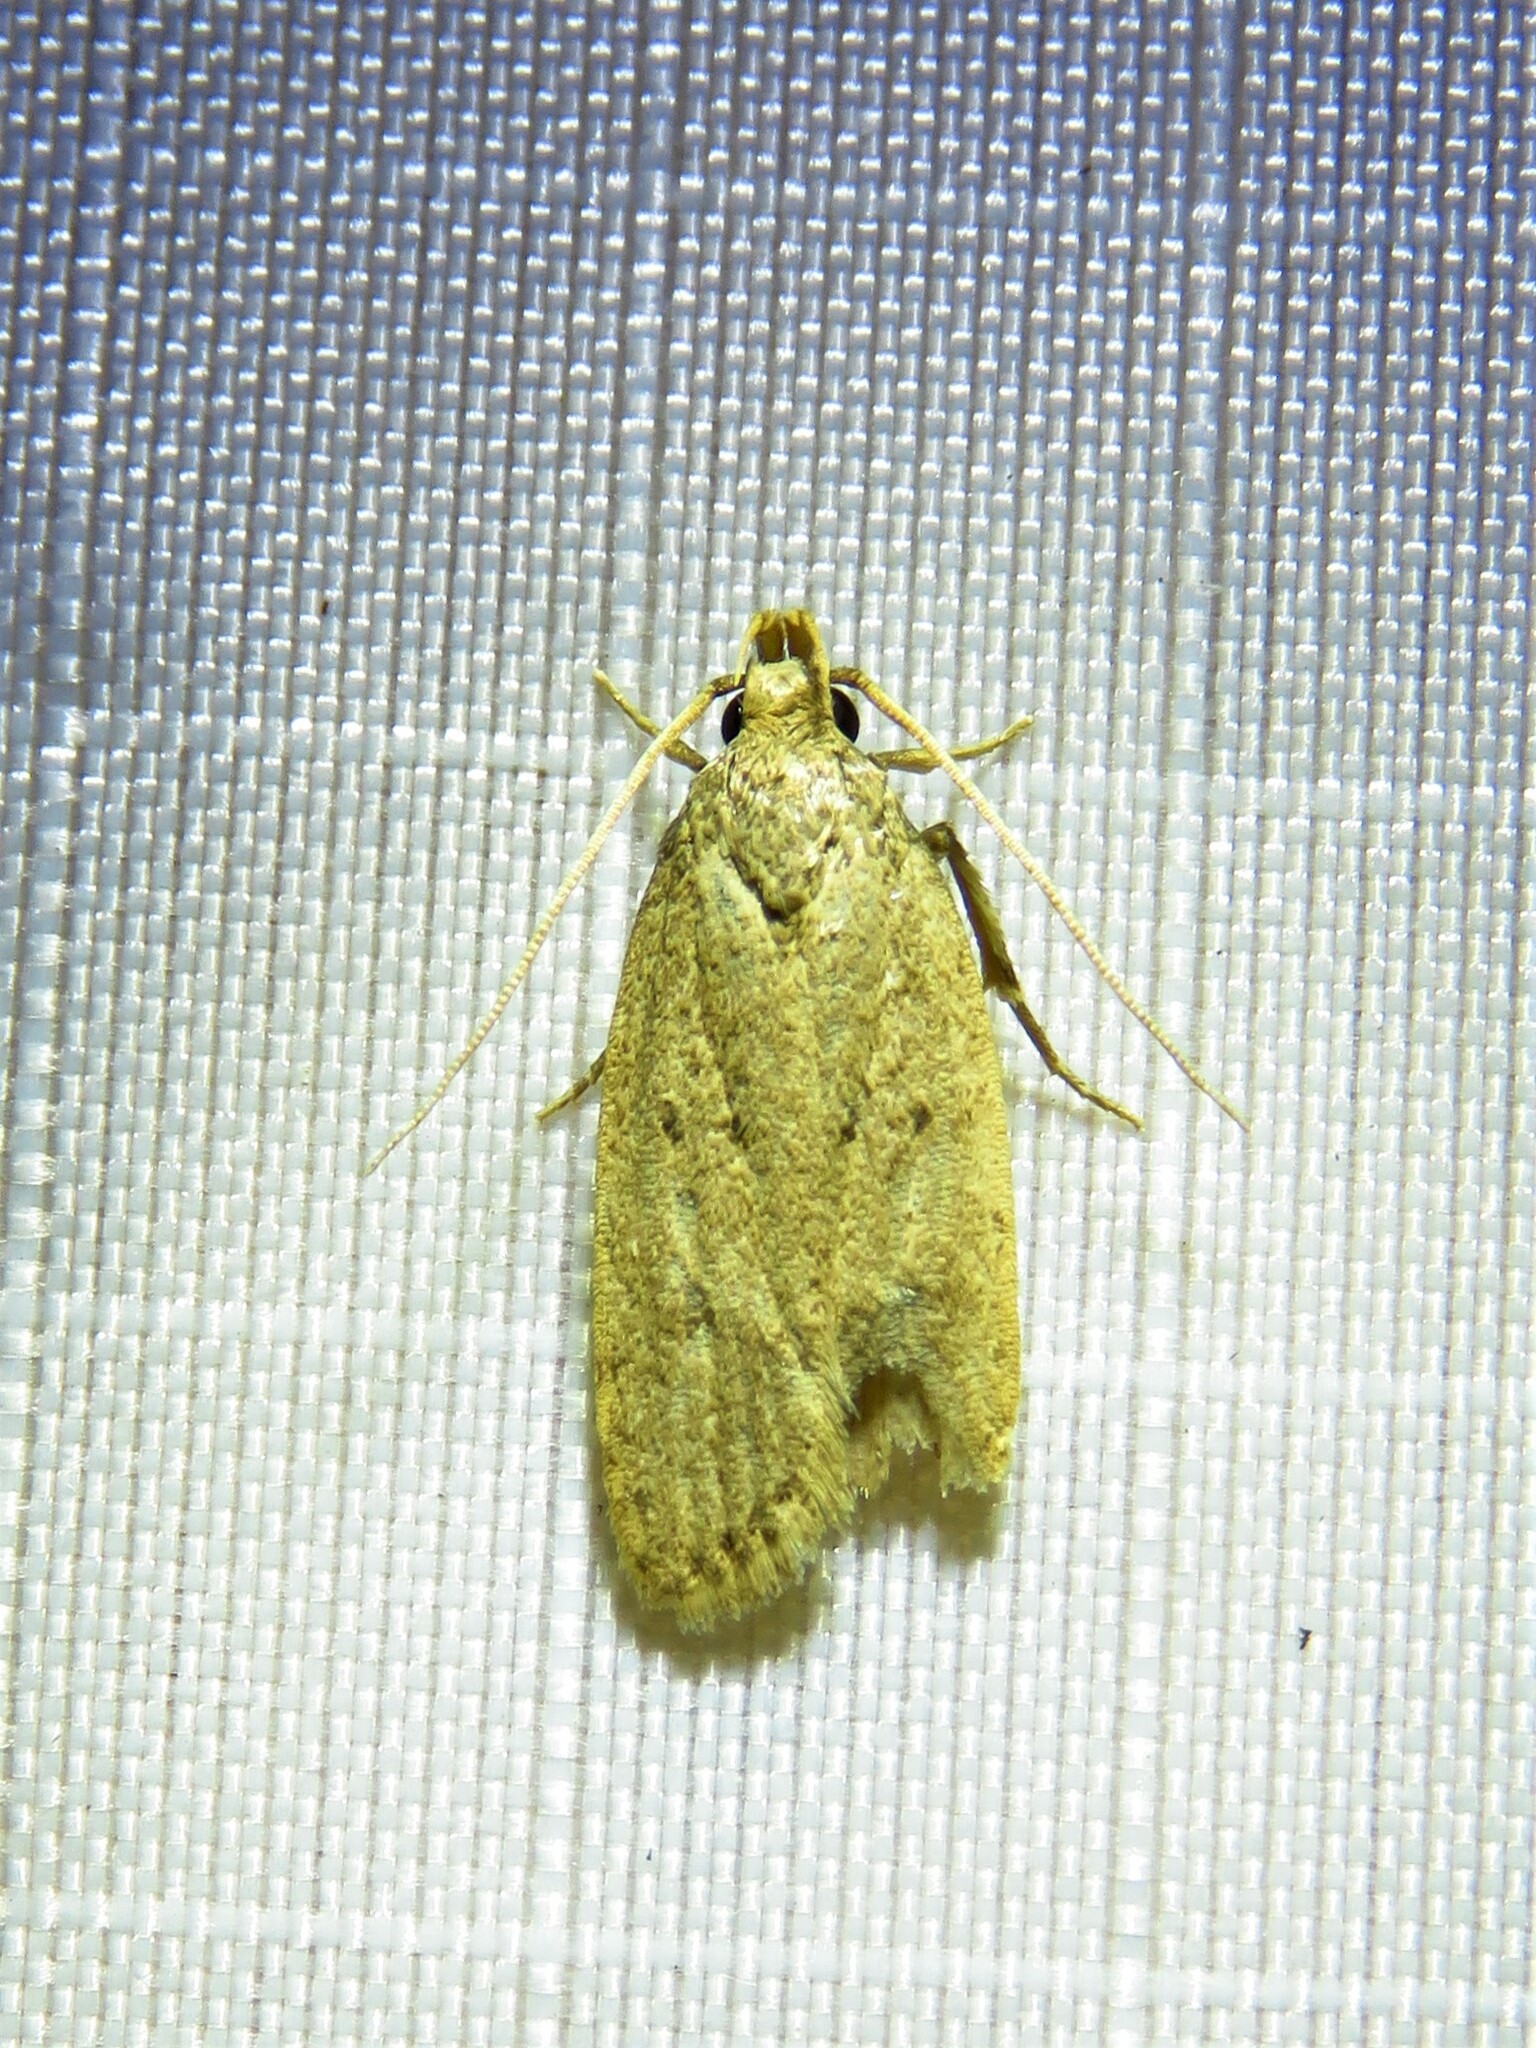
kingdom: Animalia
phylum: Arthropoda
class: Insecta
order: Lepidoptera
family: Autostichidae
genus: Autosticha
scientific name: Autosticha kyotensis
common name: Kyoto moth
